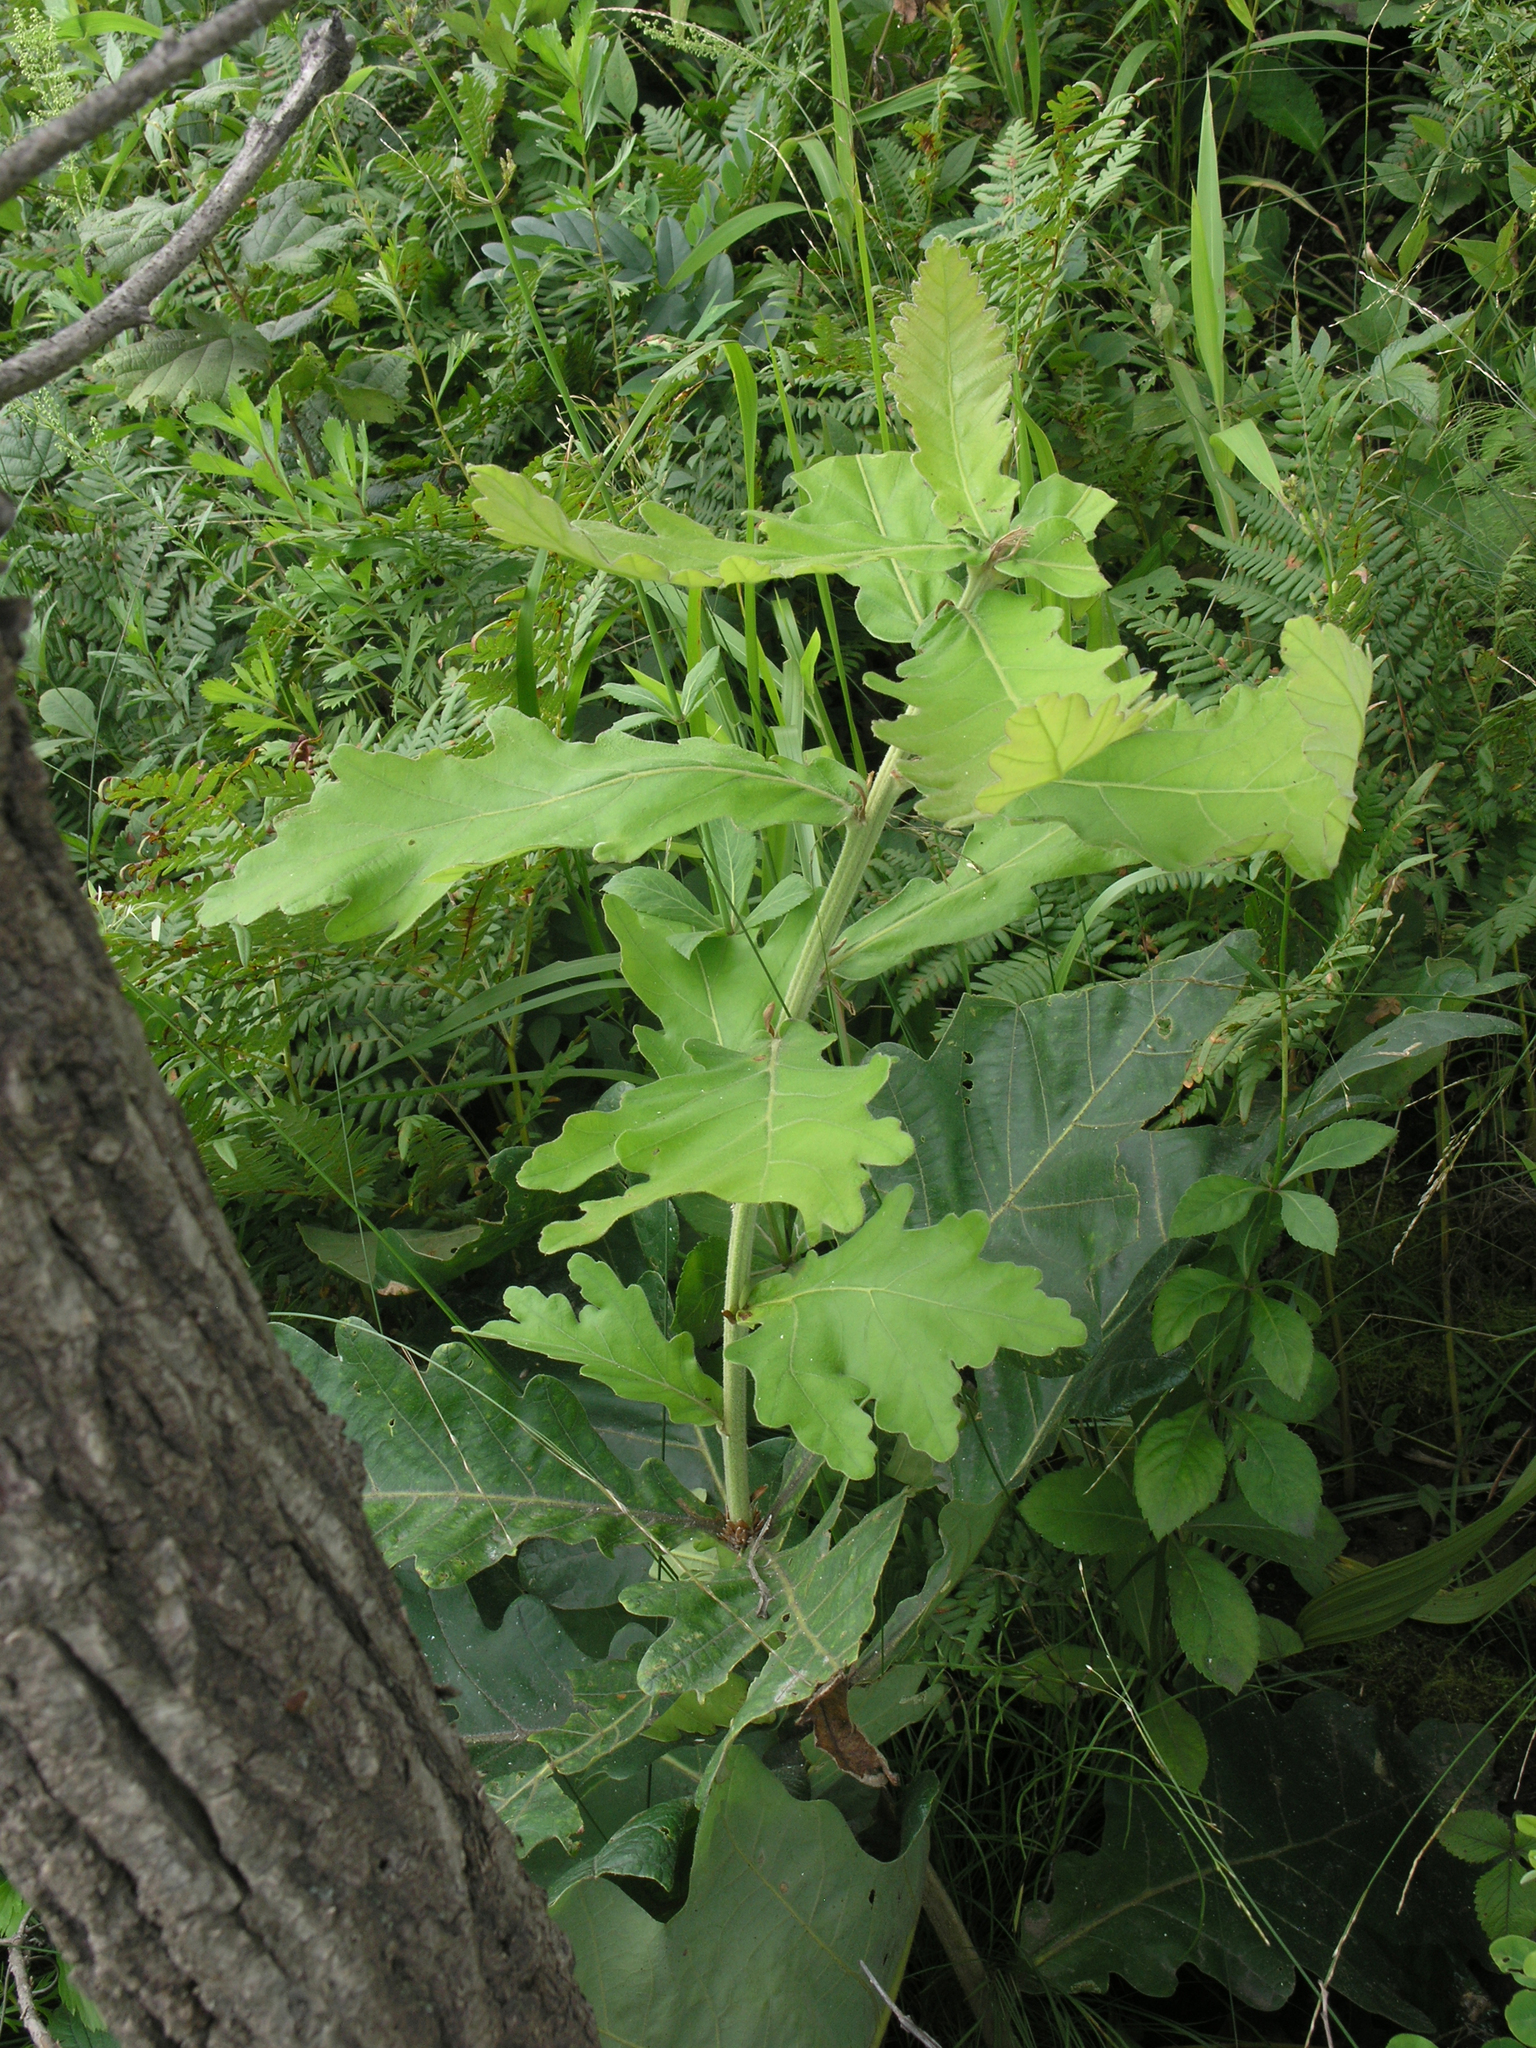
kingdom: Plantae
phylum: Tracheophyta
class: Magnoliopsida
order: Fagales
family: Fagaceae
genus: Quercus
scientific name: Quercus dentata
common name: Daimyo oak
